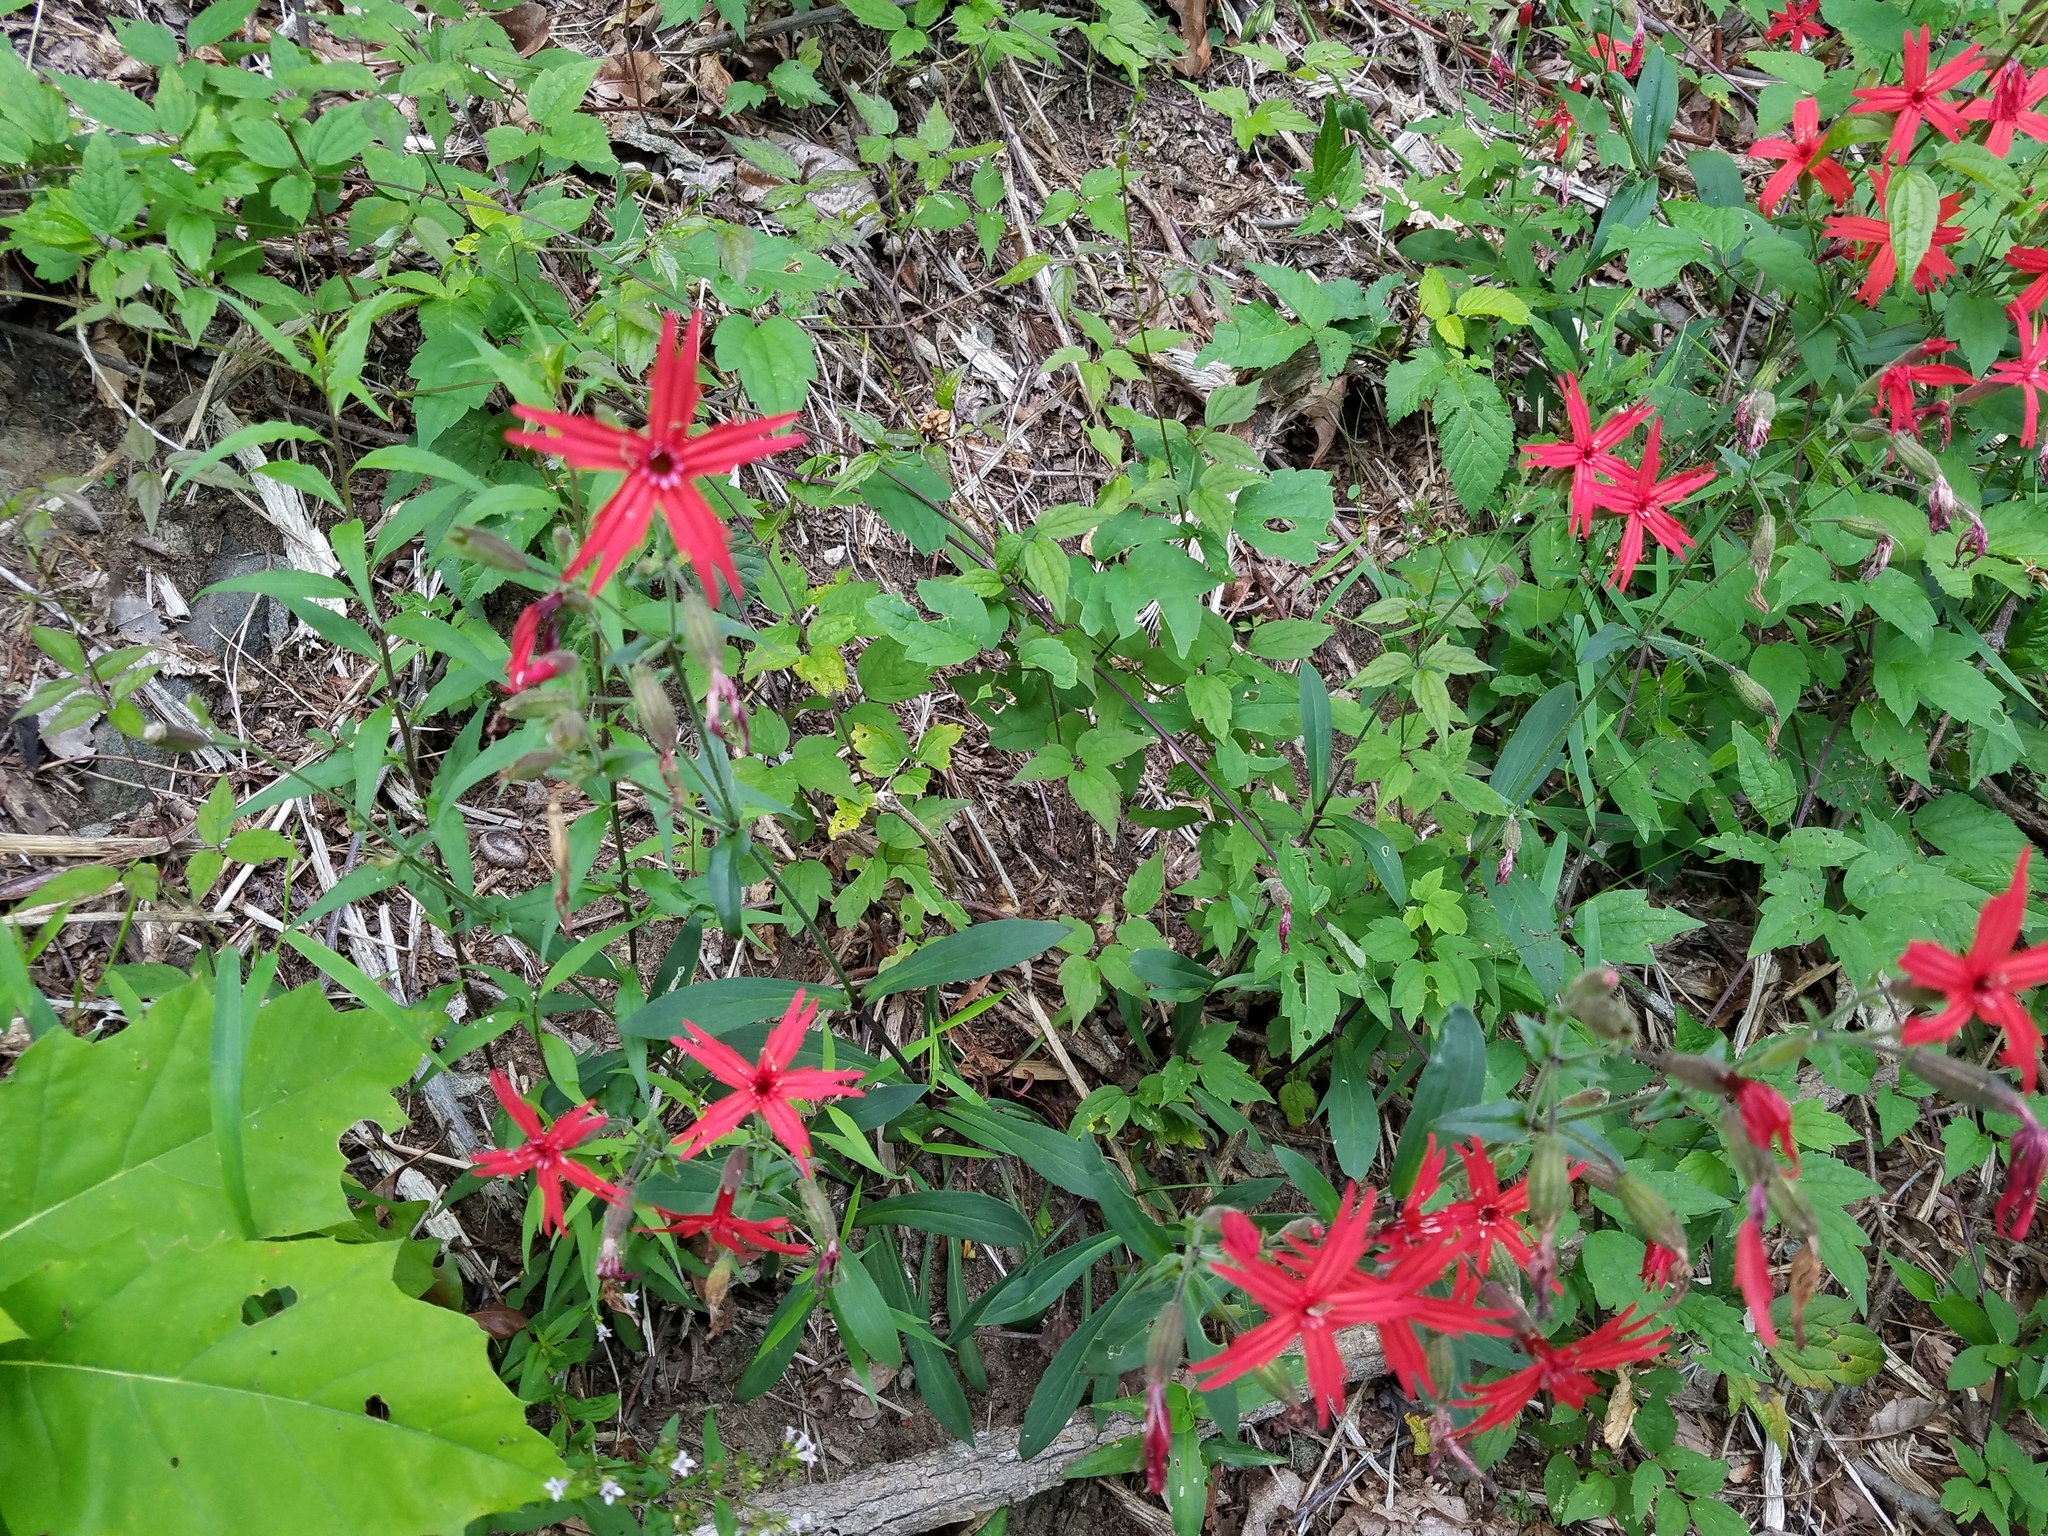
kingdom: Plantae
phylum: Tracheophyta
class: Magnoliopsida
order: Caryophyllales
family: Caryophyllaceae
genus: Silene
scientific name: Silene virginica
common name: Fire-pink
